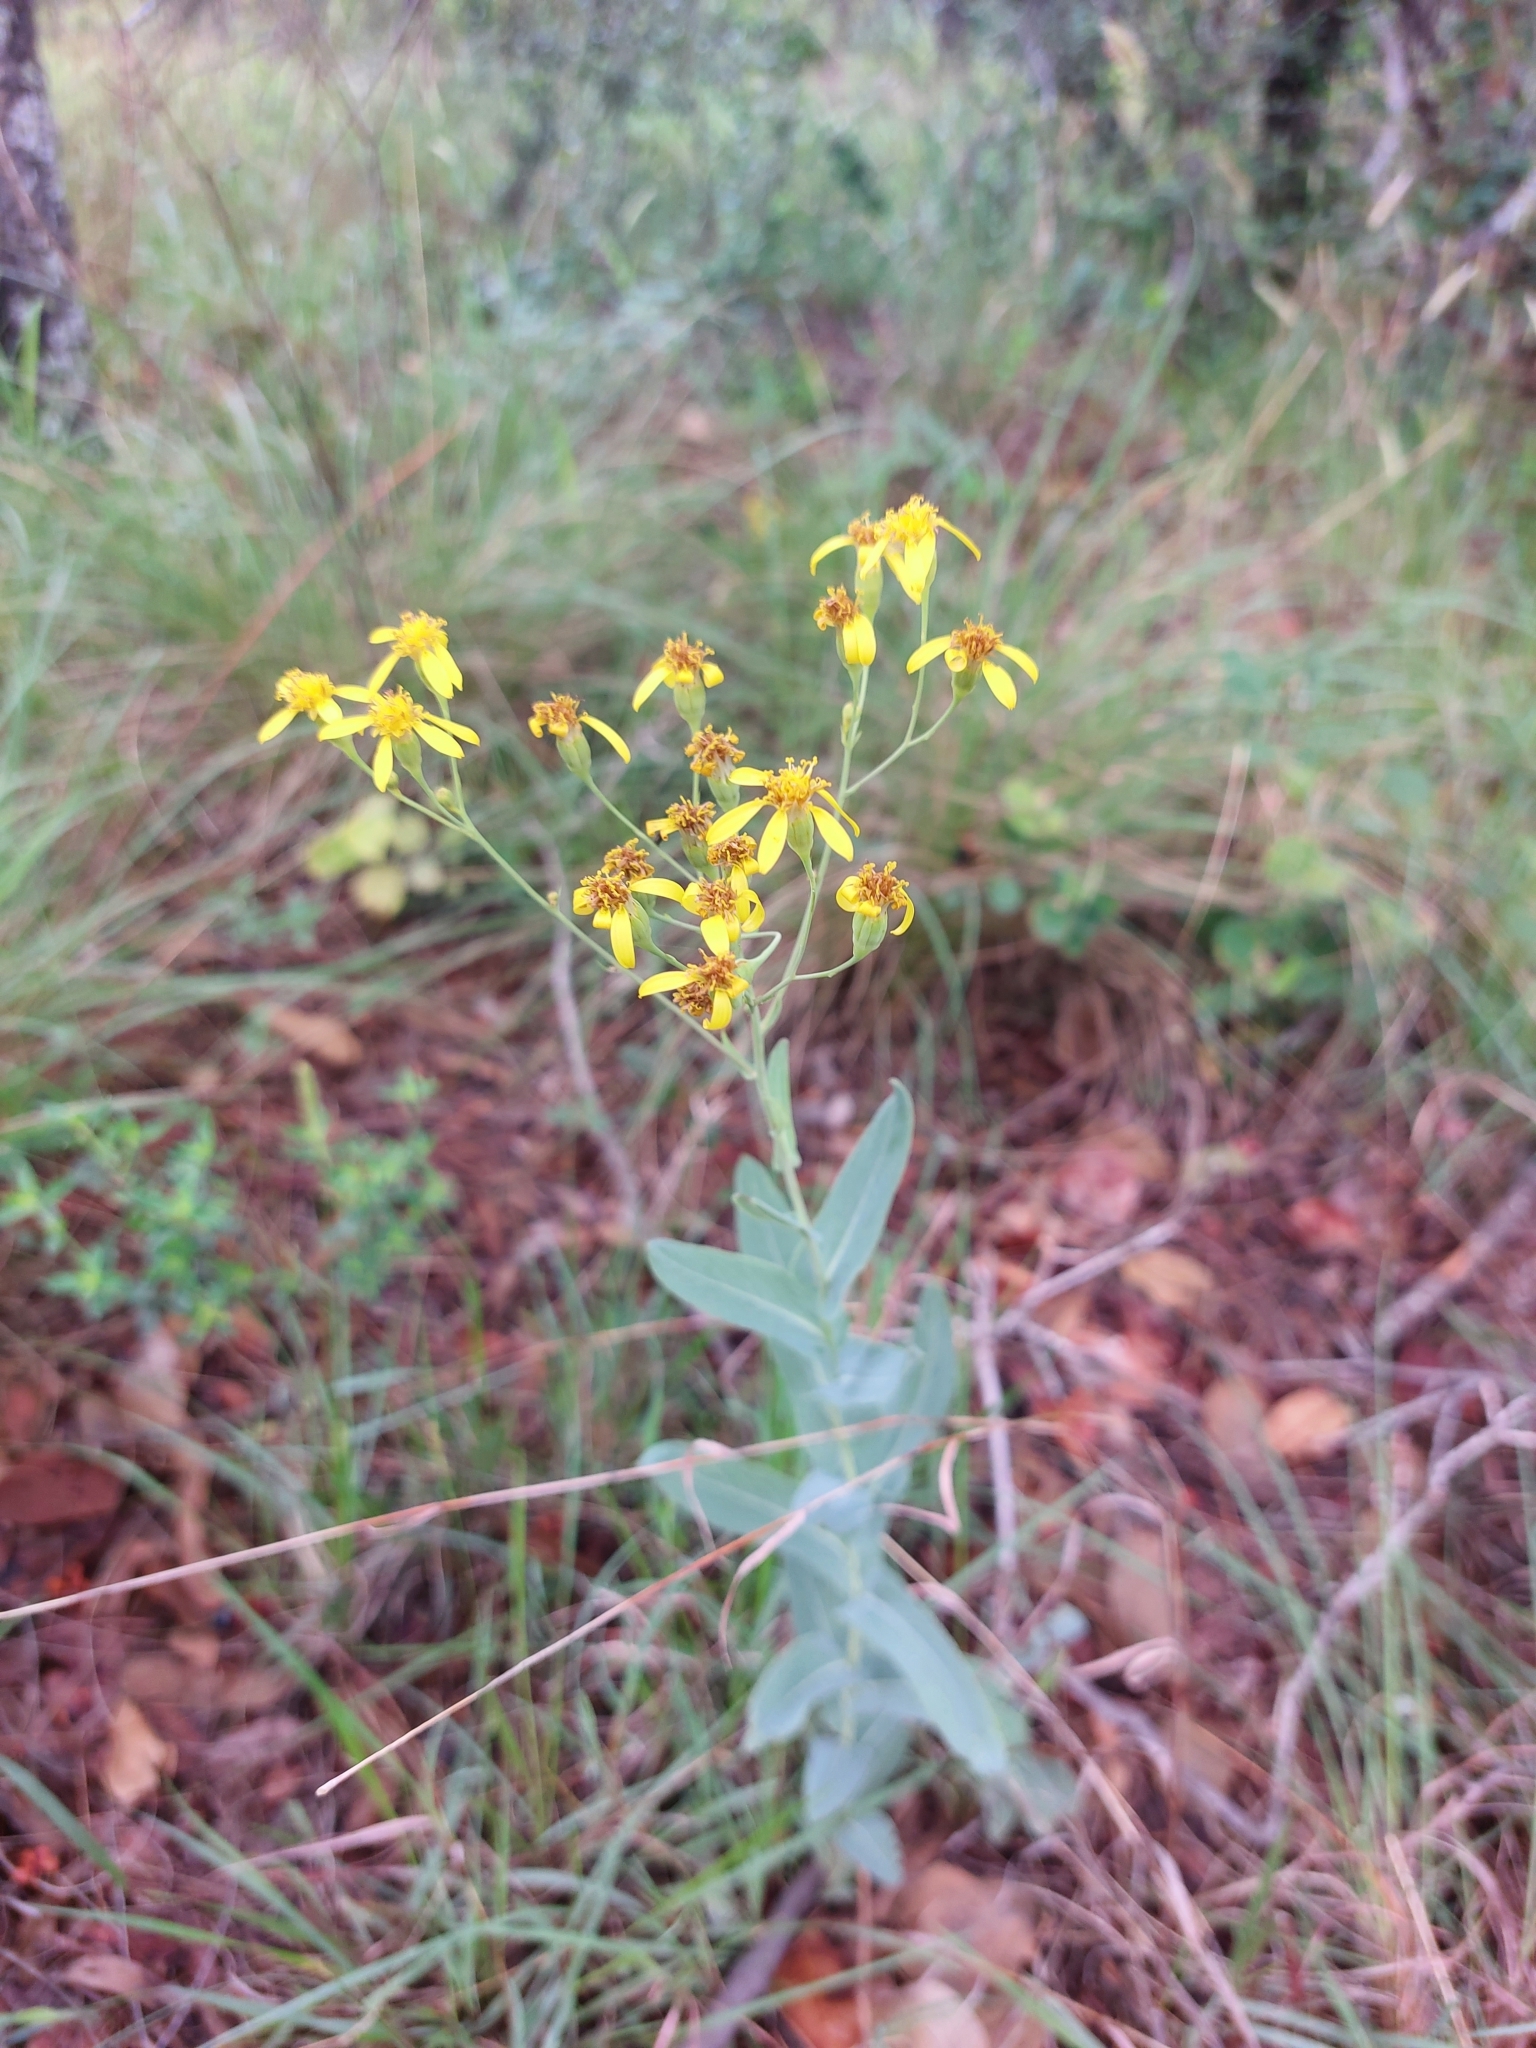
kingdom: Plantae
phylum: Tracheophyta
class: Magnoliopsida
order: Asterales
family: Asteraceae
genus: Senecio
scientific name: Senecio venosus
